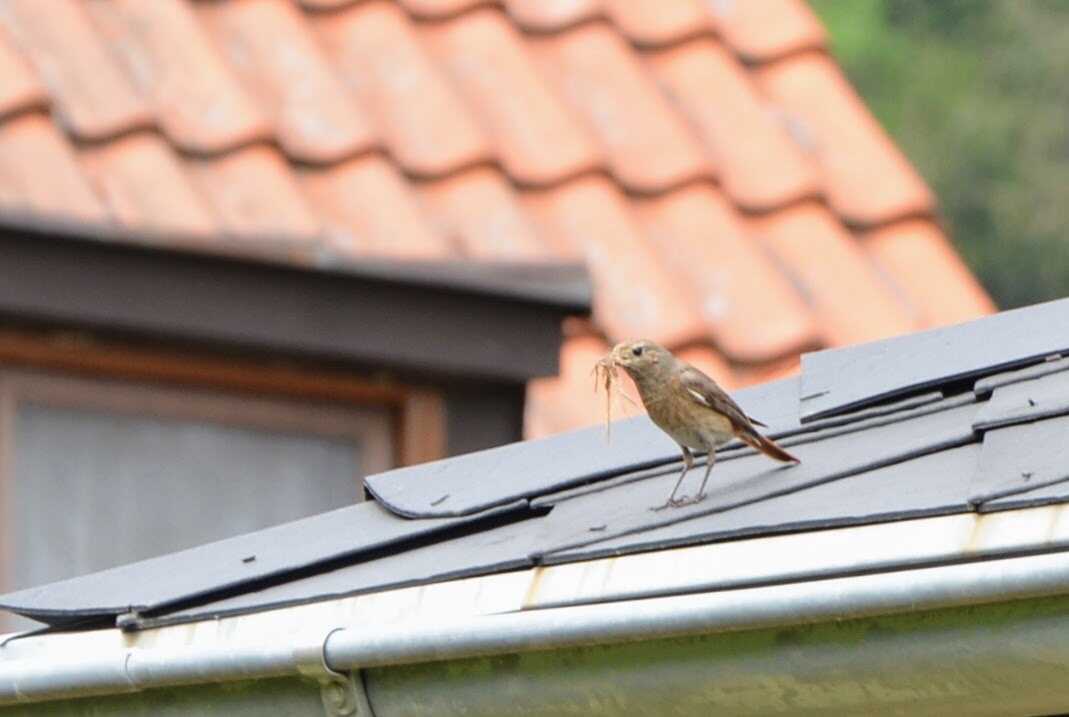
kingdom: Animalia
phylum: Chordata
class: Aves
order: Passeriformes
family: Muscicapidae
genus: Phoenicurus
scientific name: Phoenicurus phoenicurus
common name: Common redstart
